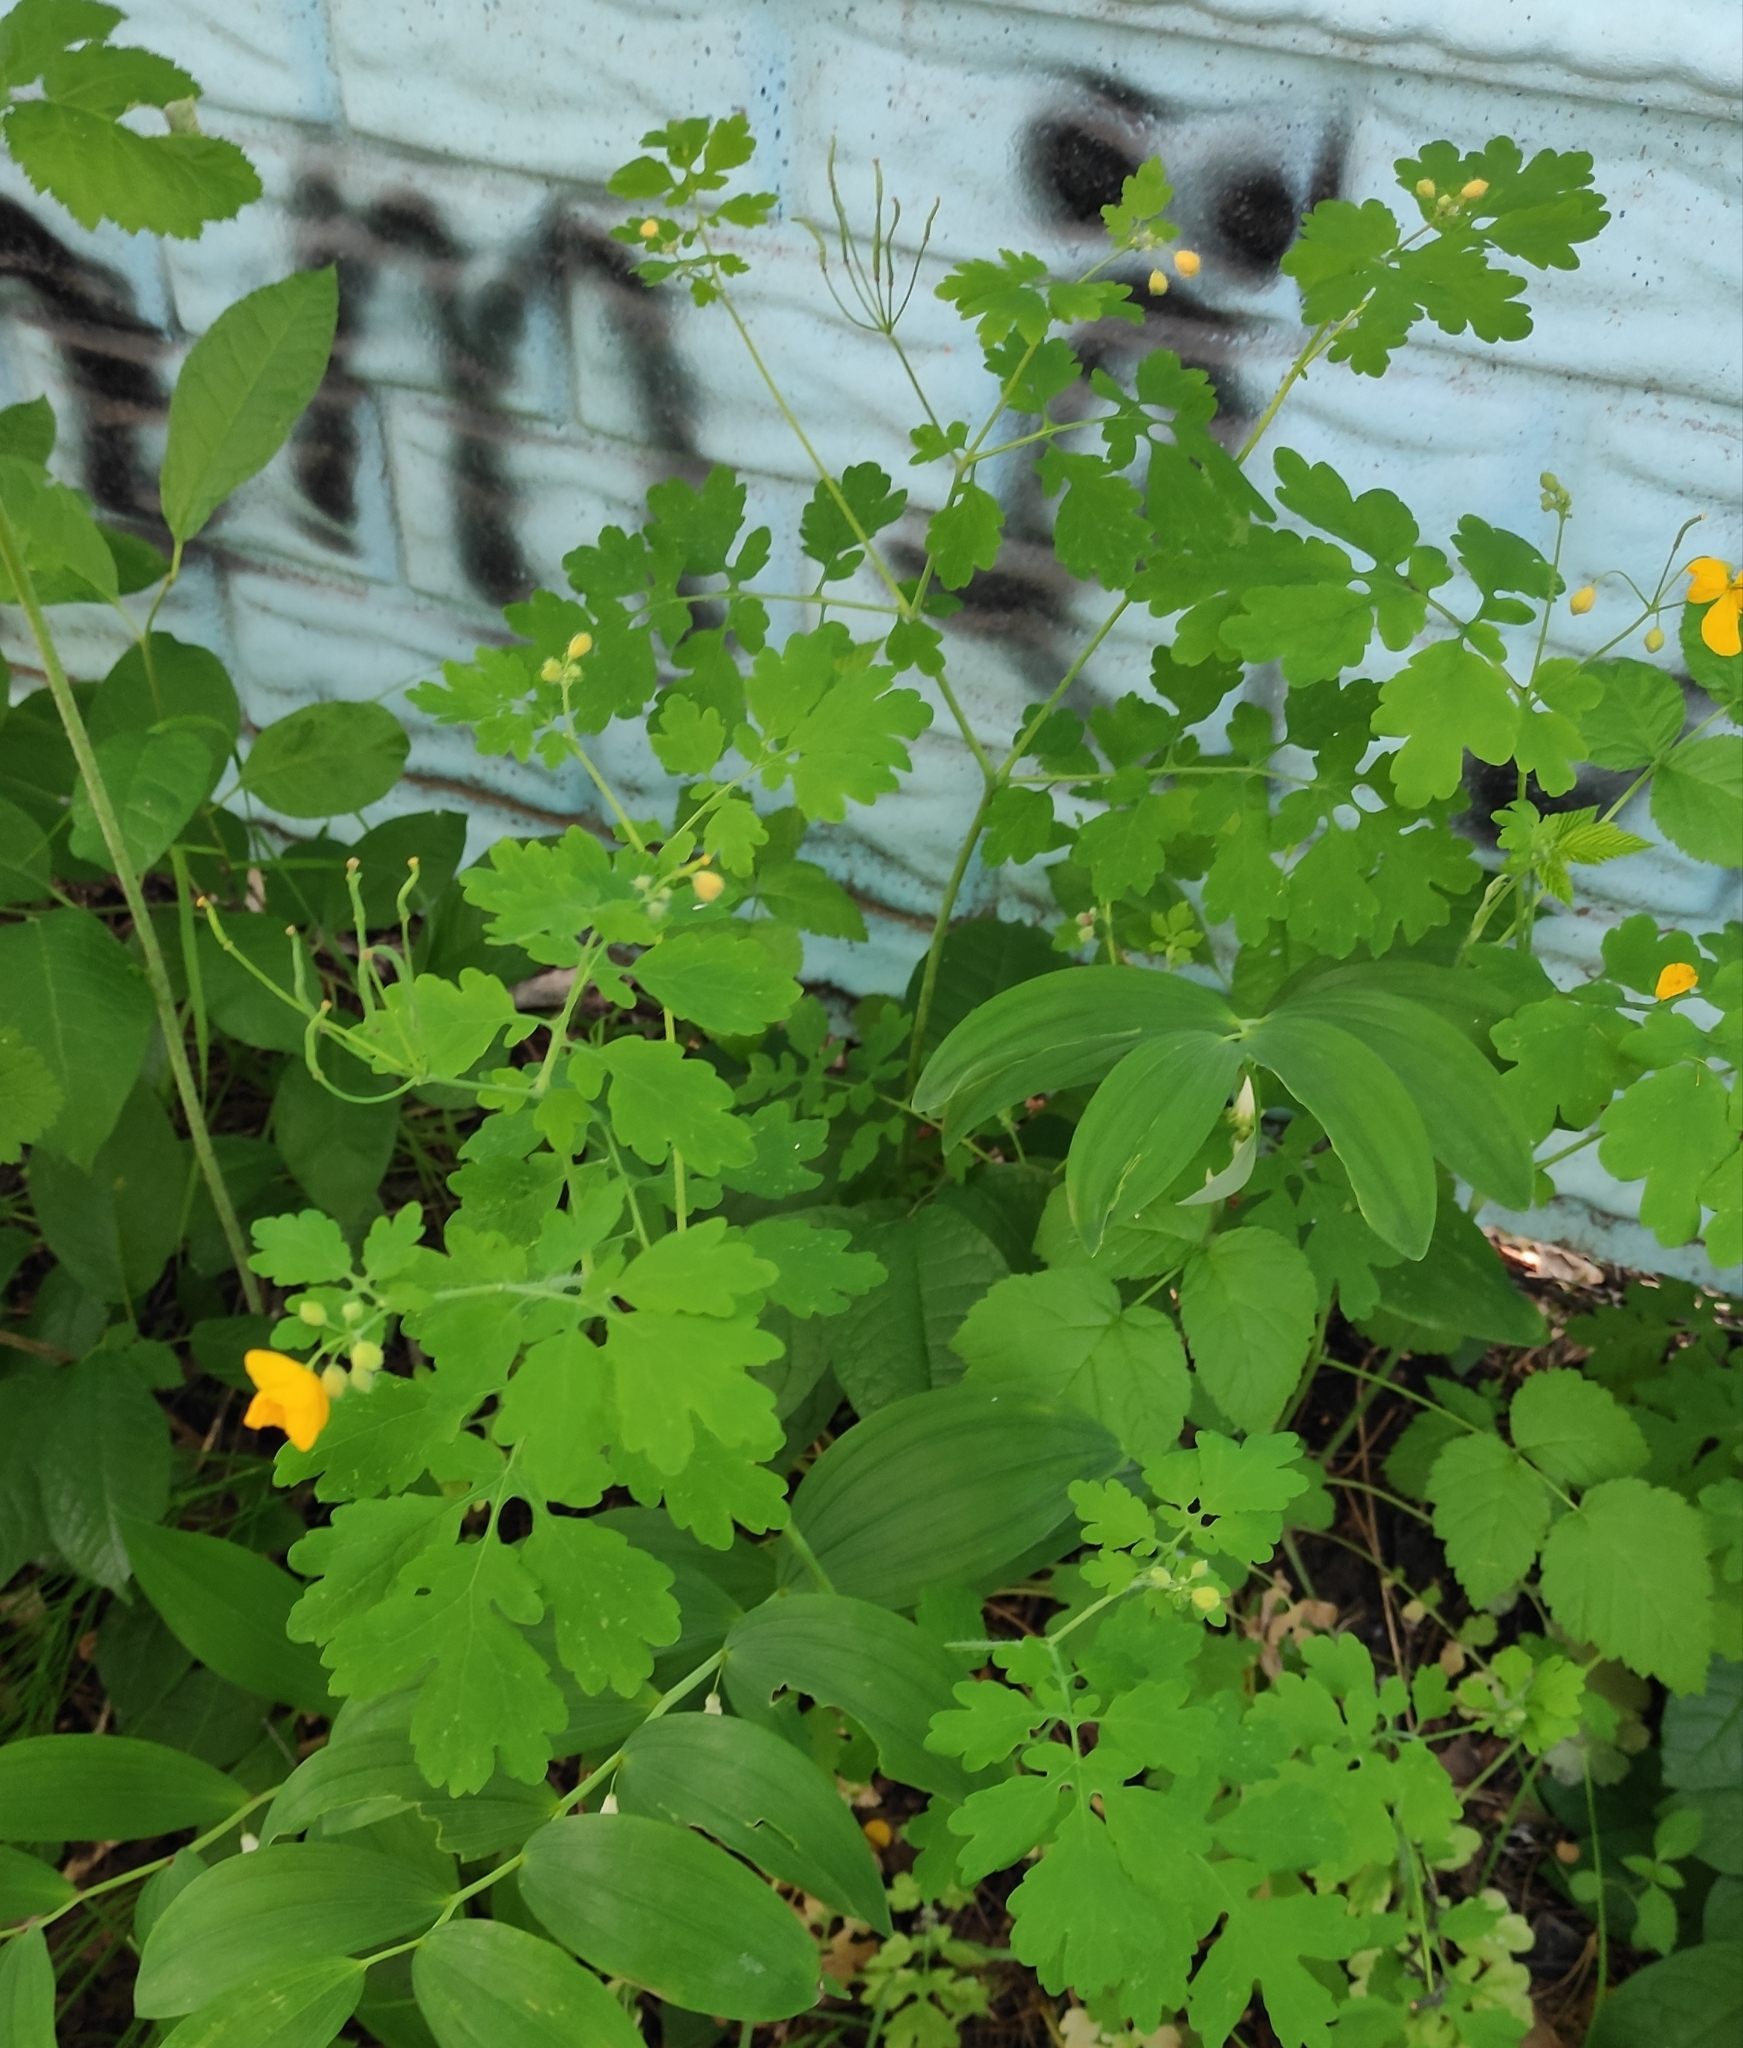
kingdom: Plantae
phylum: Tracheophyta
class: Magnoliopsida
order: Ranunculales
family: Papaveraceae
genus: Chelidonium
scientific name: Chelidonium majus
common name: Greater celandine
